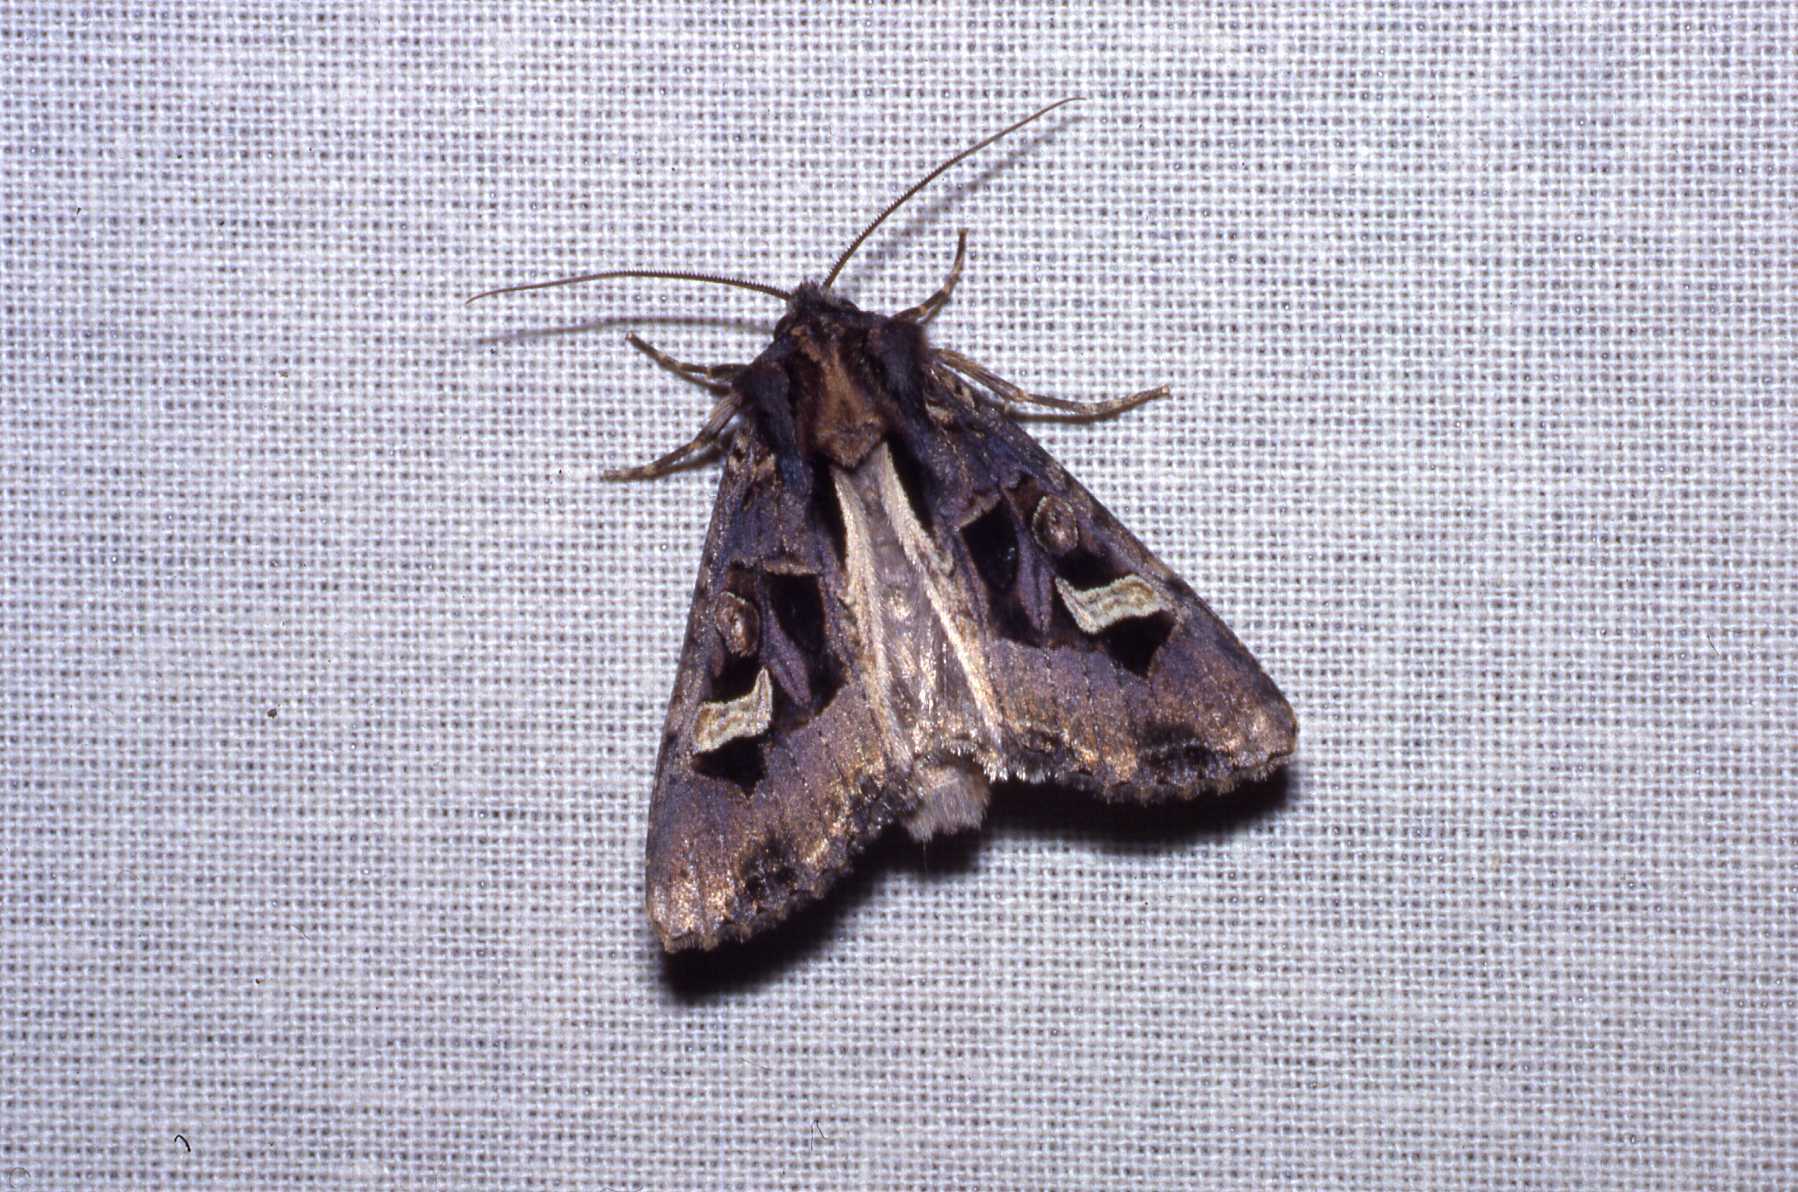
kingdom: Animalia
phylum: Arthropoda
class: Insecta
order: Lepidoptera
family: Noctuidae
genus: Trigonophora
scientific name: Trigonophora flammea
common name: Flame brocade
